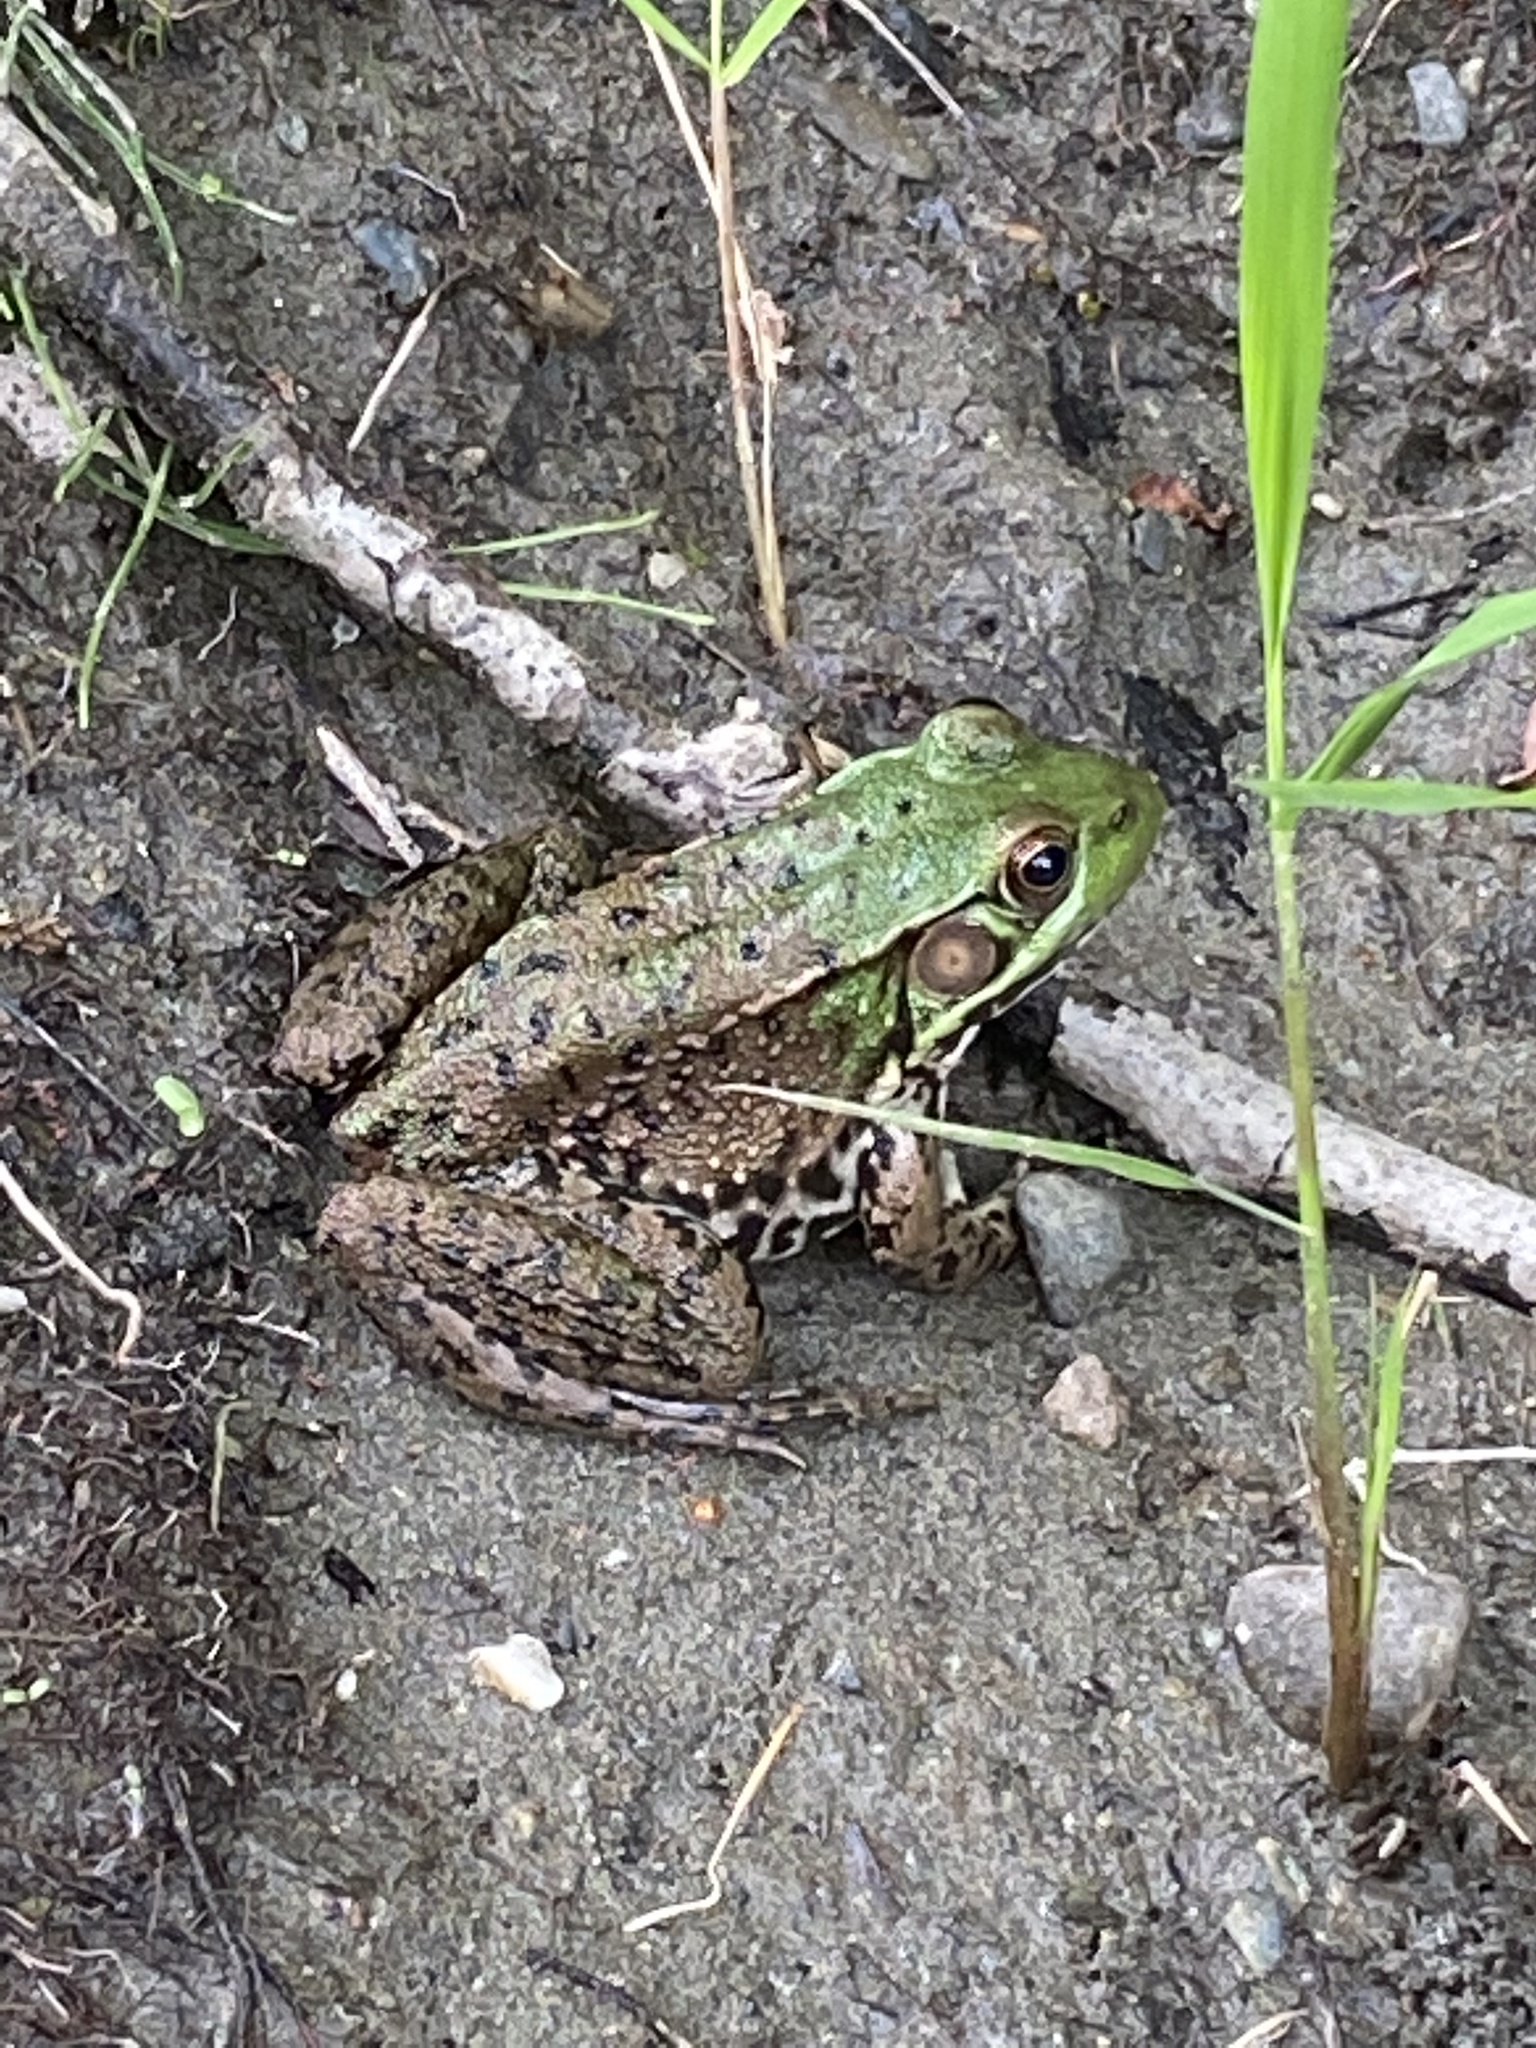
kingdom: Animalia
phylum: Chordata
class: Amphibia
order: Anura
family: Ranidae
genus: Lithobates
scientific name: Lithobates clamitans
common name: Green frog
